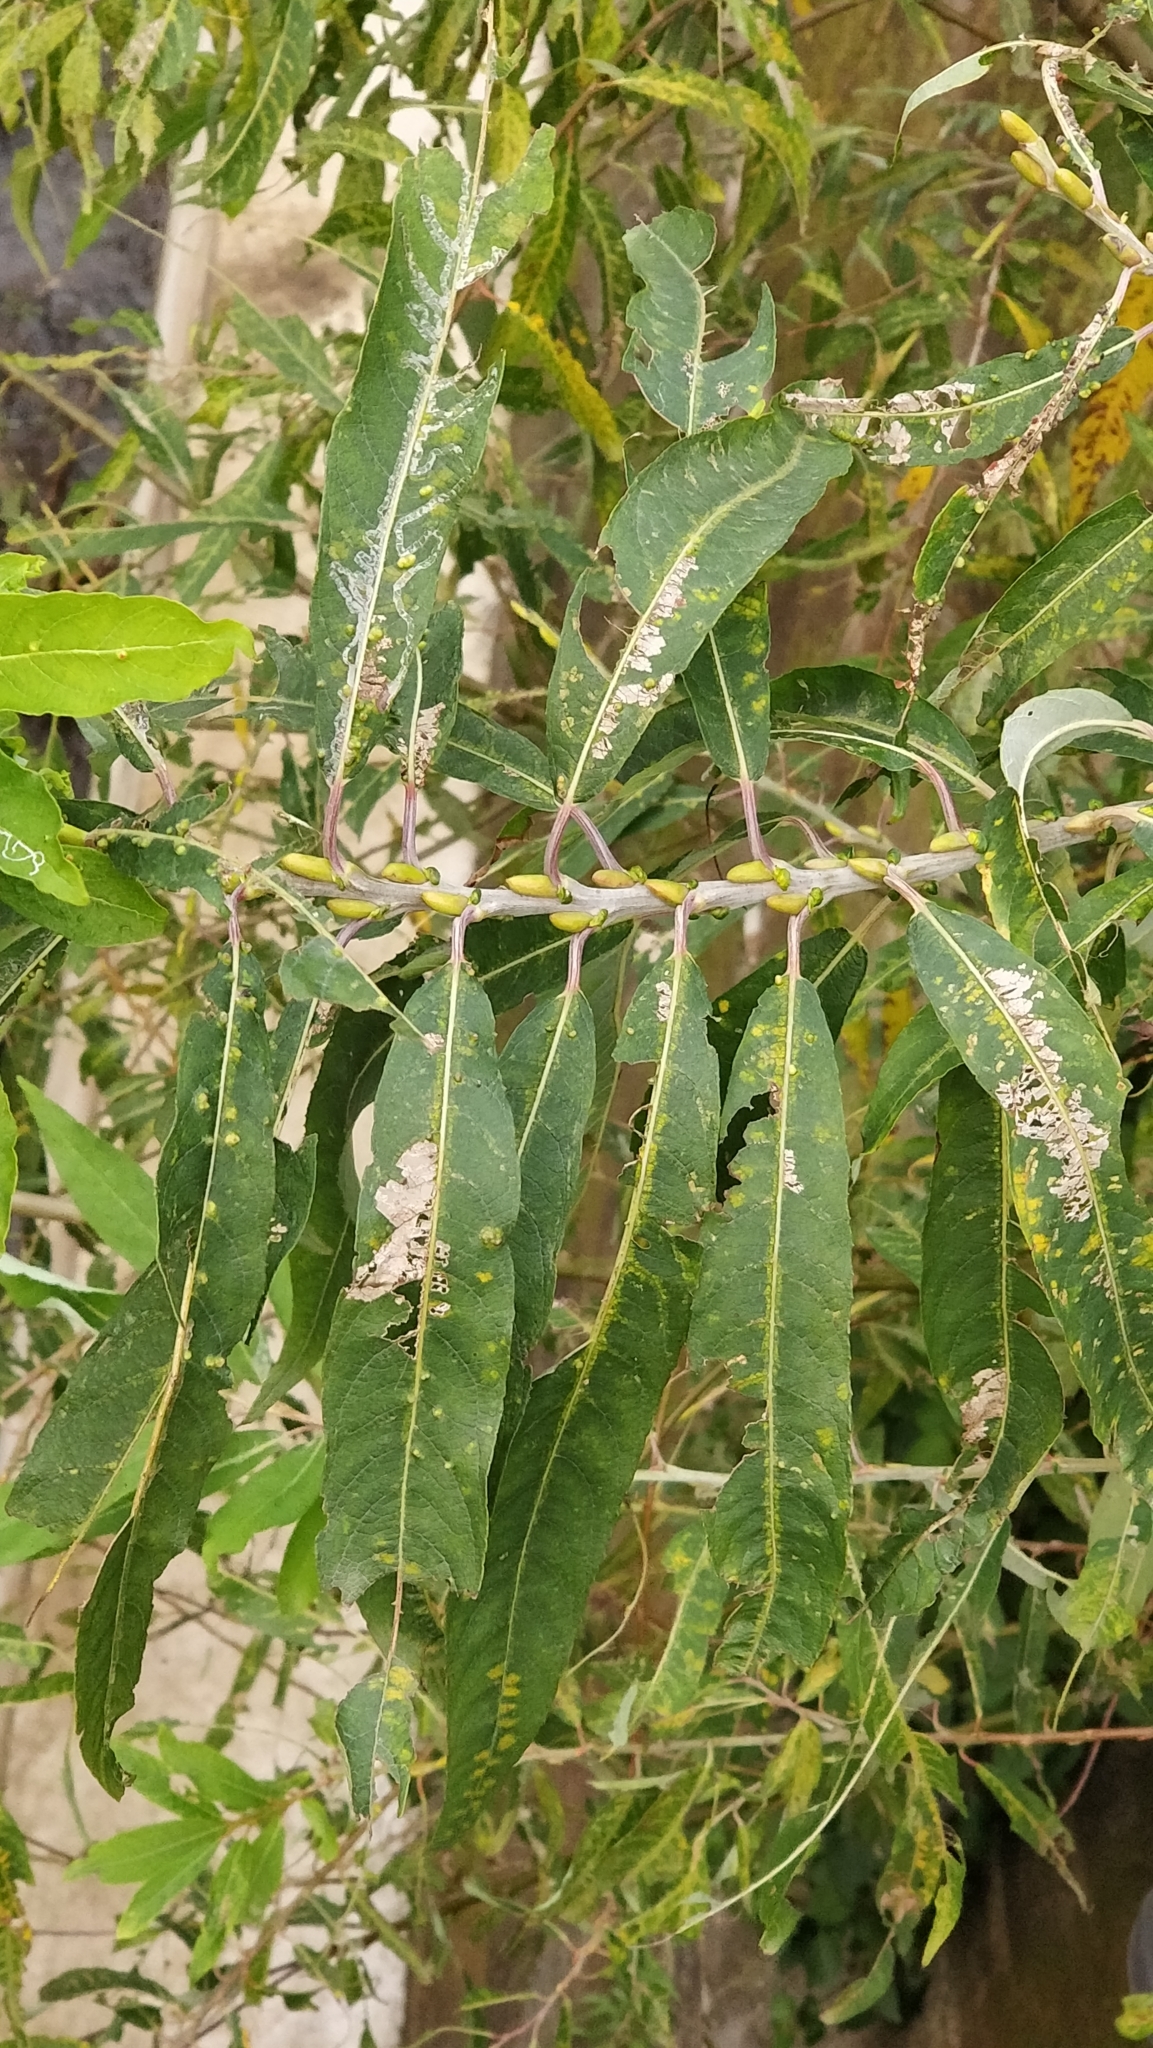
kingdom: Plantae
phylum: Tracheophyta
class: Magnoliopsida
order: Malpighiales
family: Salicaceae
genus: Salix
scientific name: Salix canariensis
